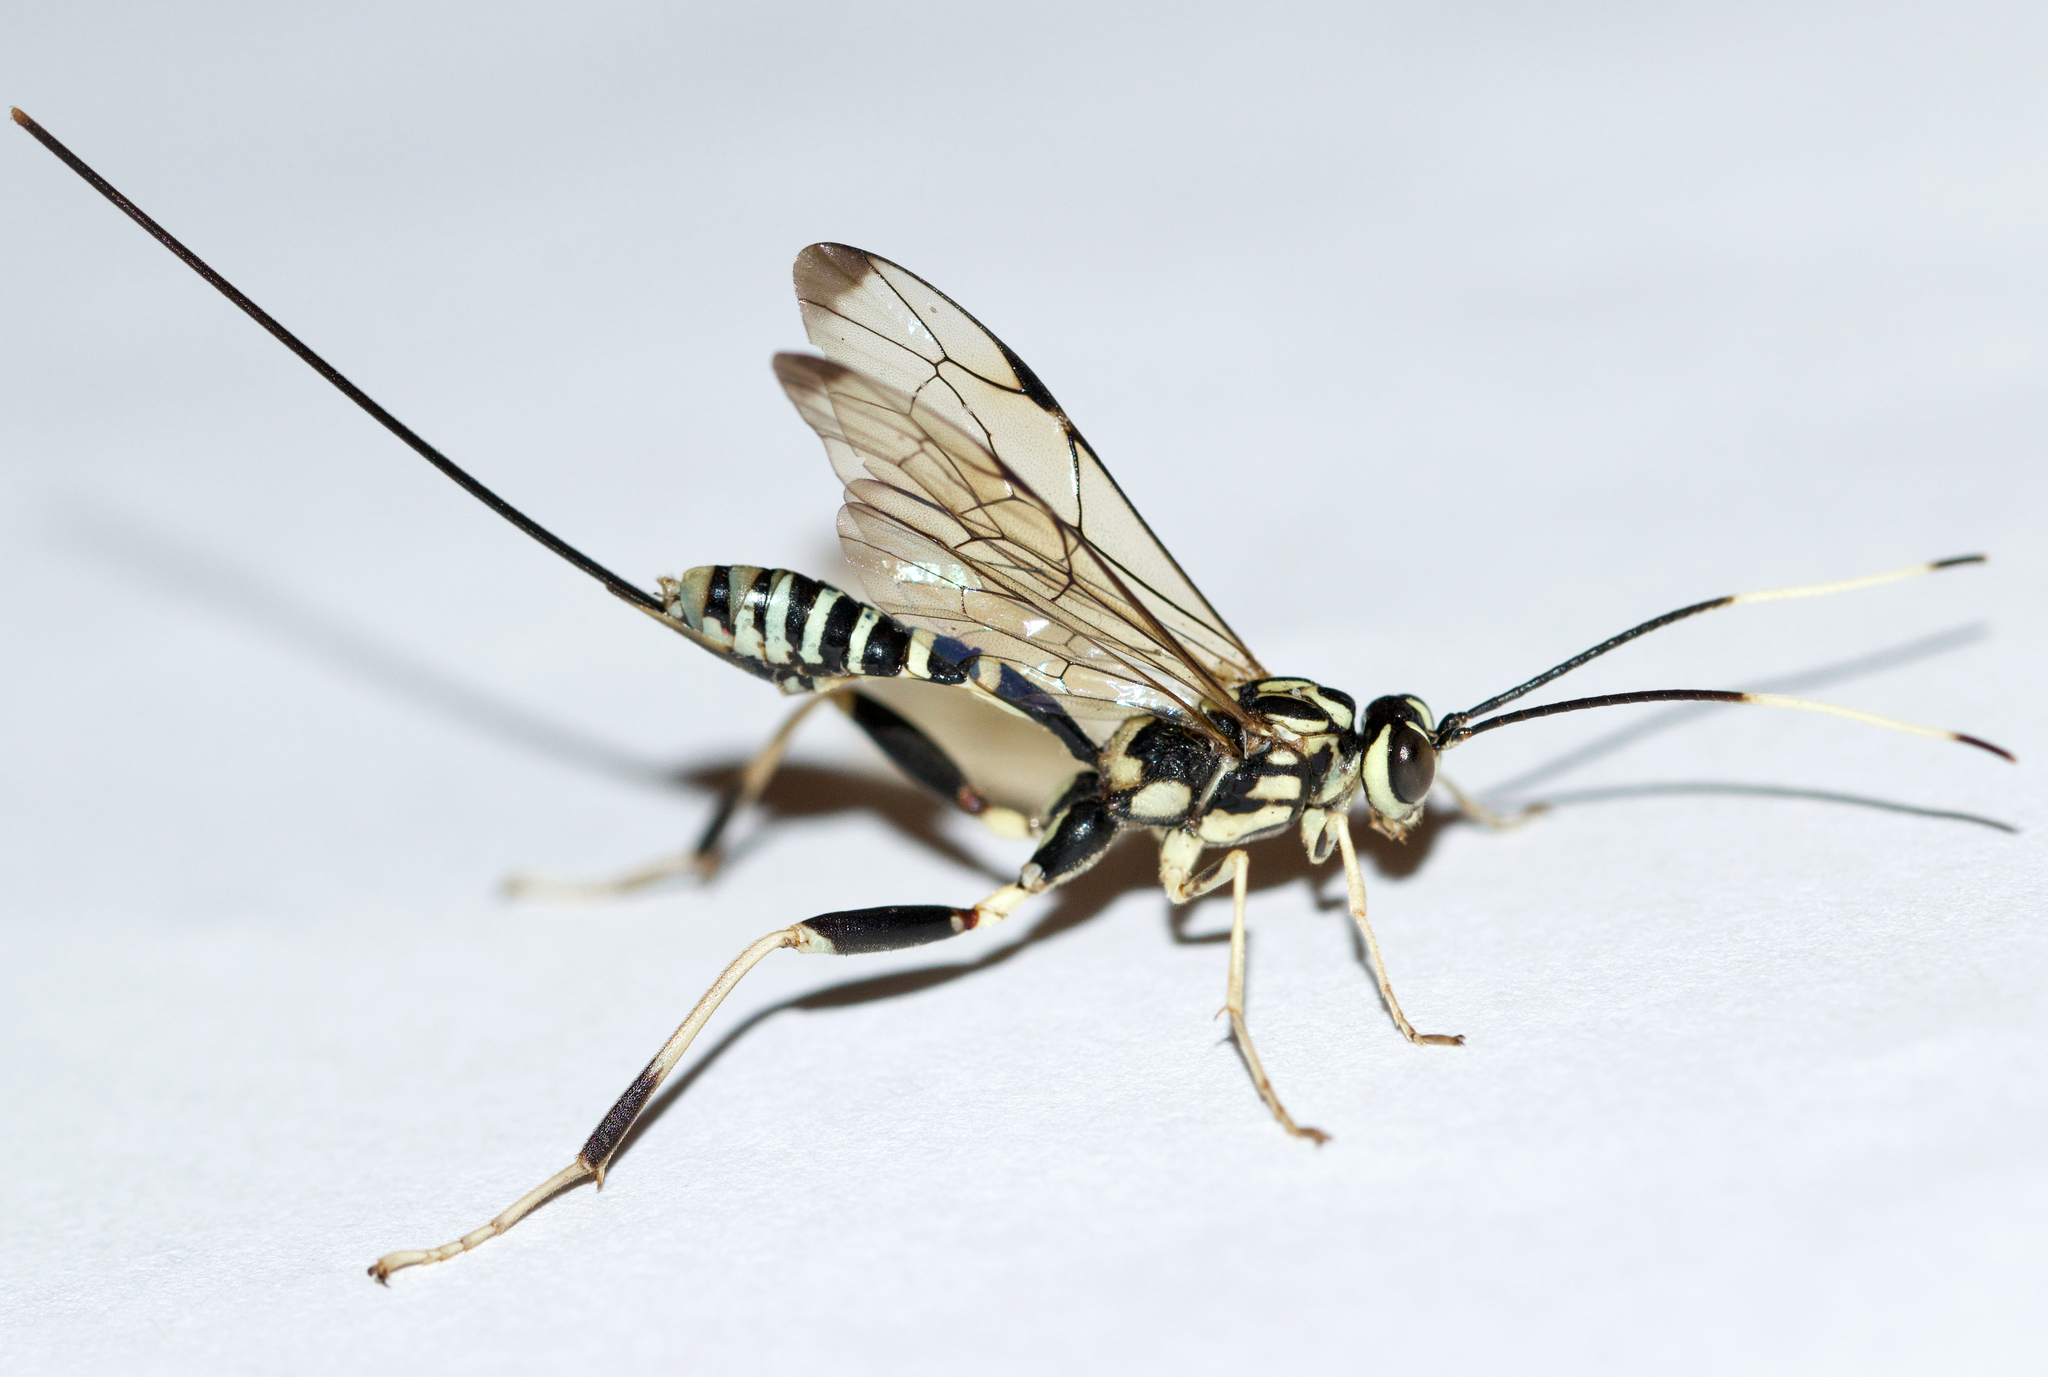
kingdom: Animalia
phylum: Arthropoda
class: Insecta
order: Hymenoptera
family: Ichneumonidae
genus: Arotes
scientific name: Arotes amoenus
